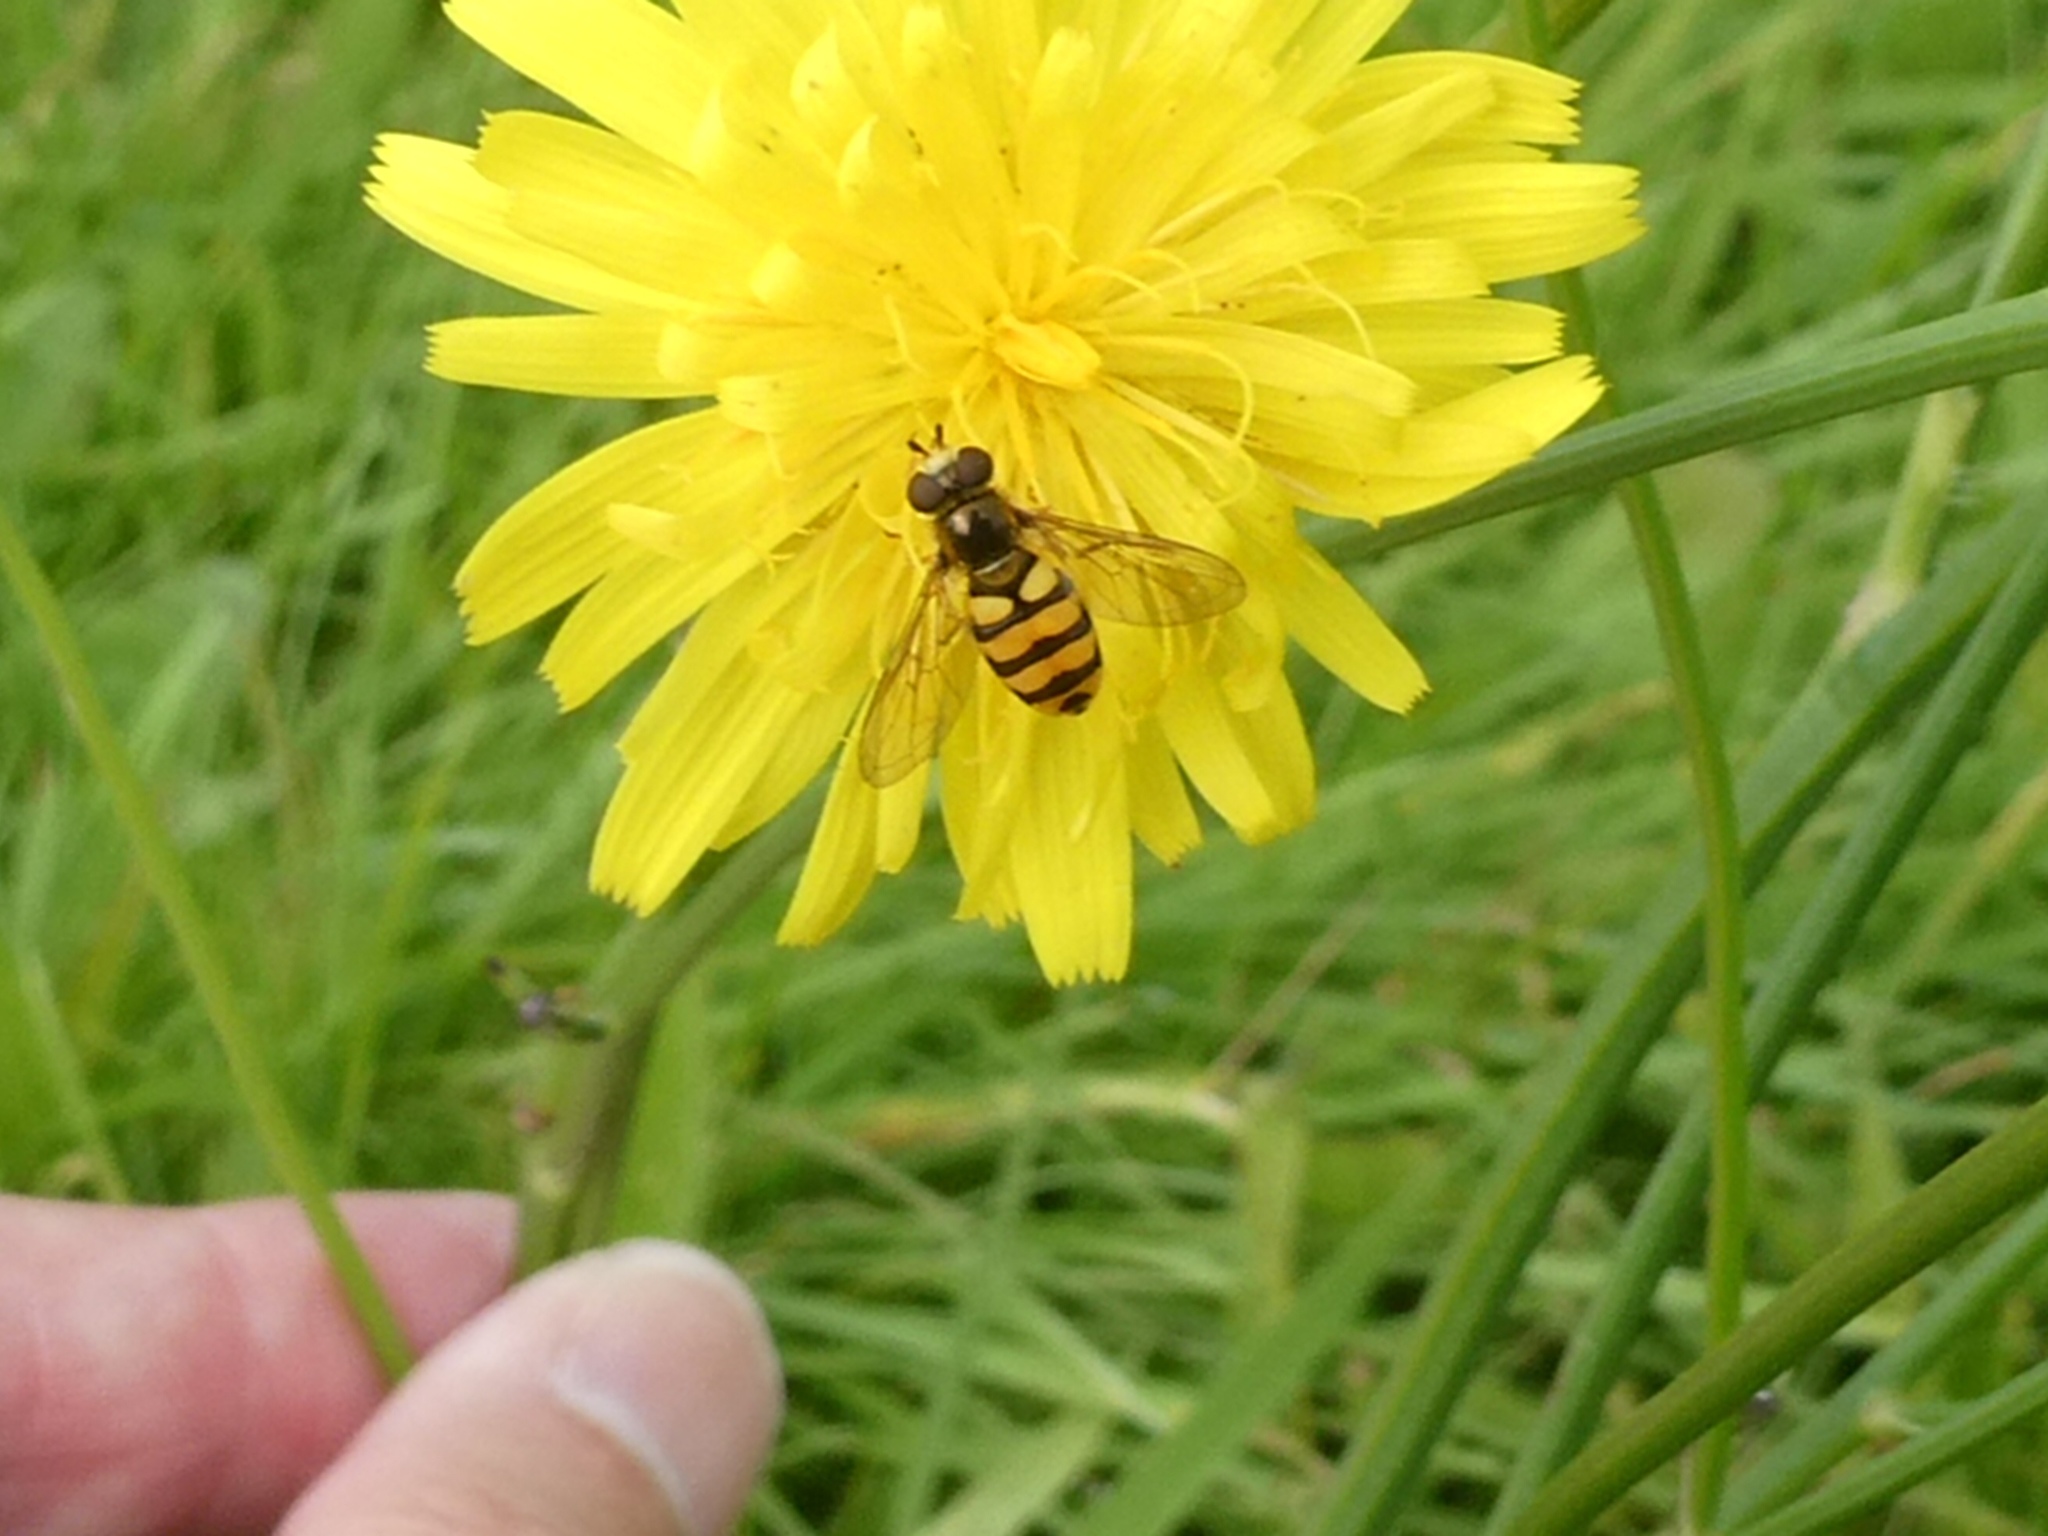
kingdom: Animalia
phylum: Arthropoda
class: Insecta
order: Diptera
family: Syrphidae
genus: Eupeodes
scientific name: Eupeodes latifasciatus
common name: Variable aphideater
